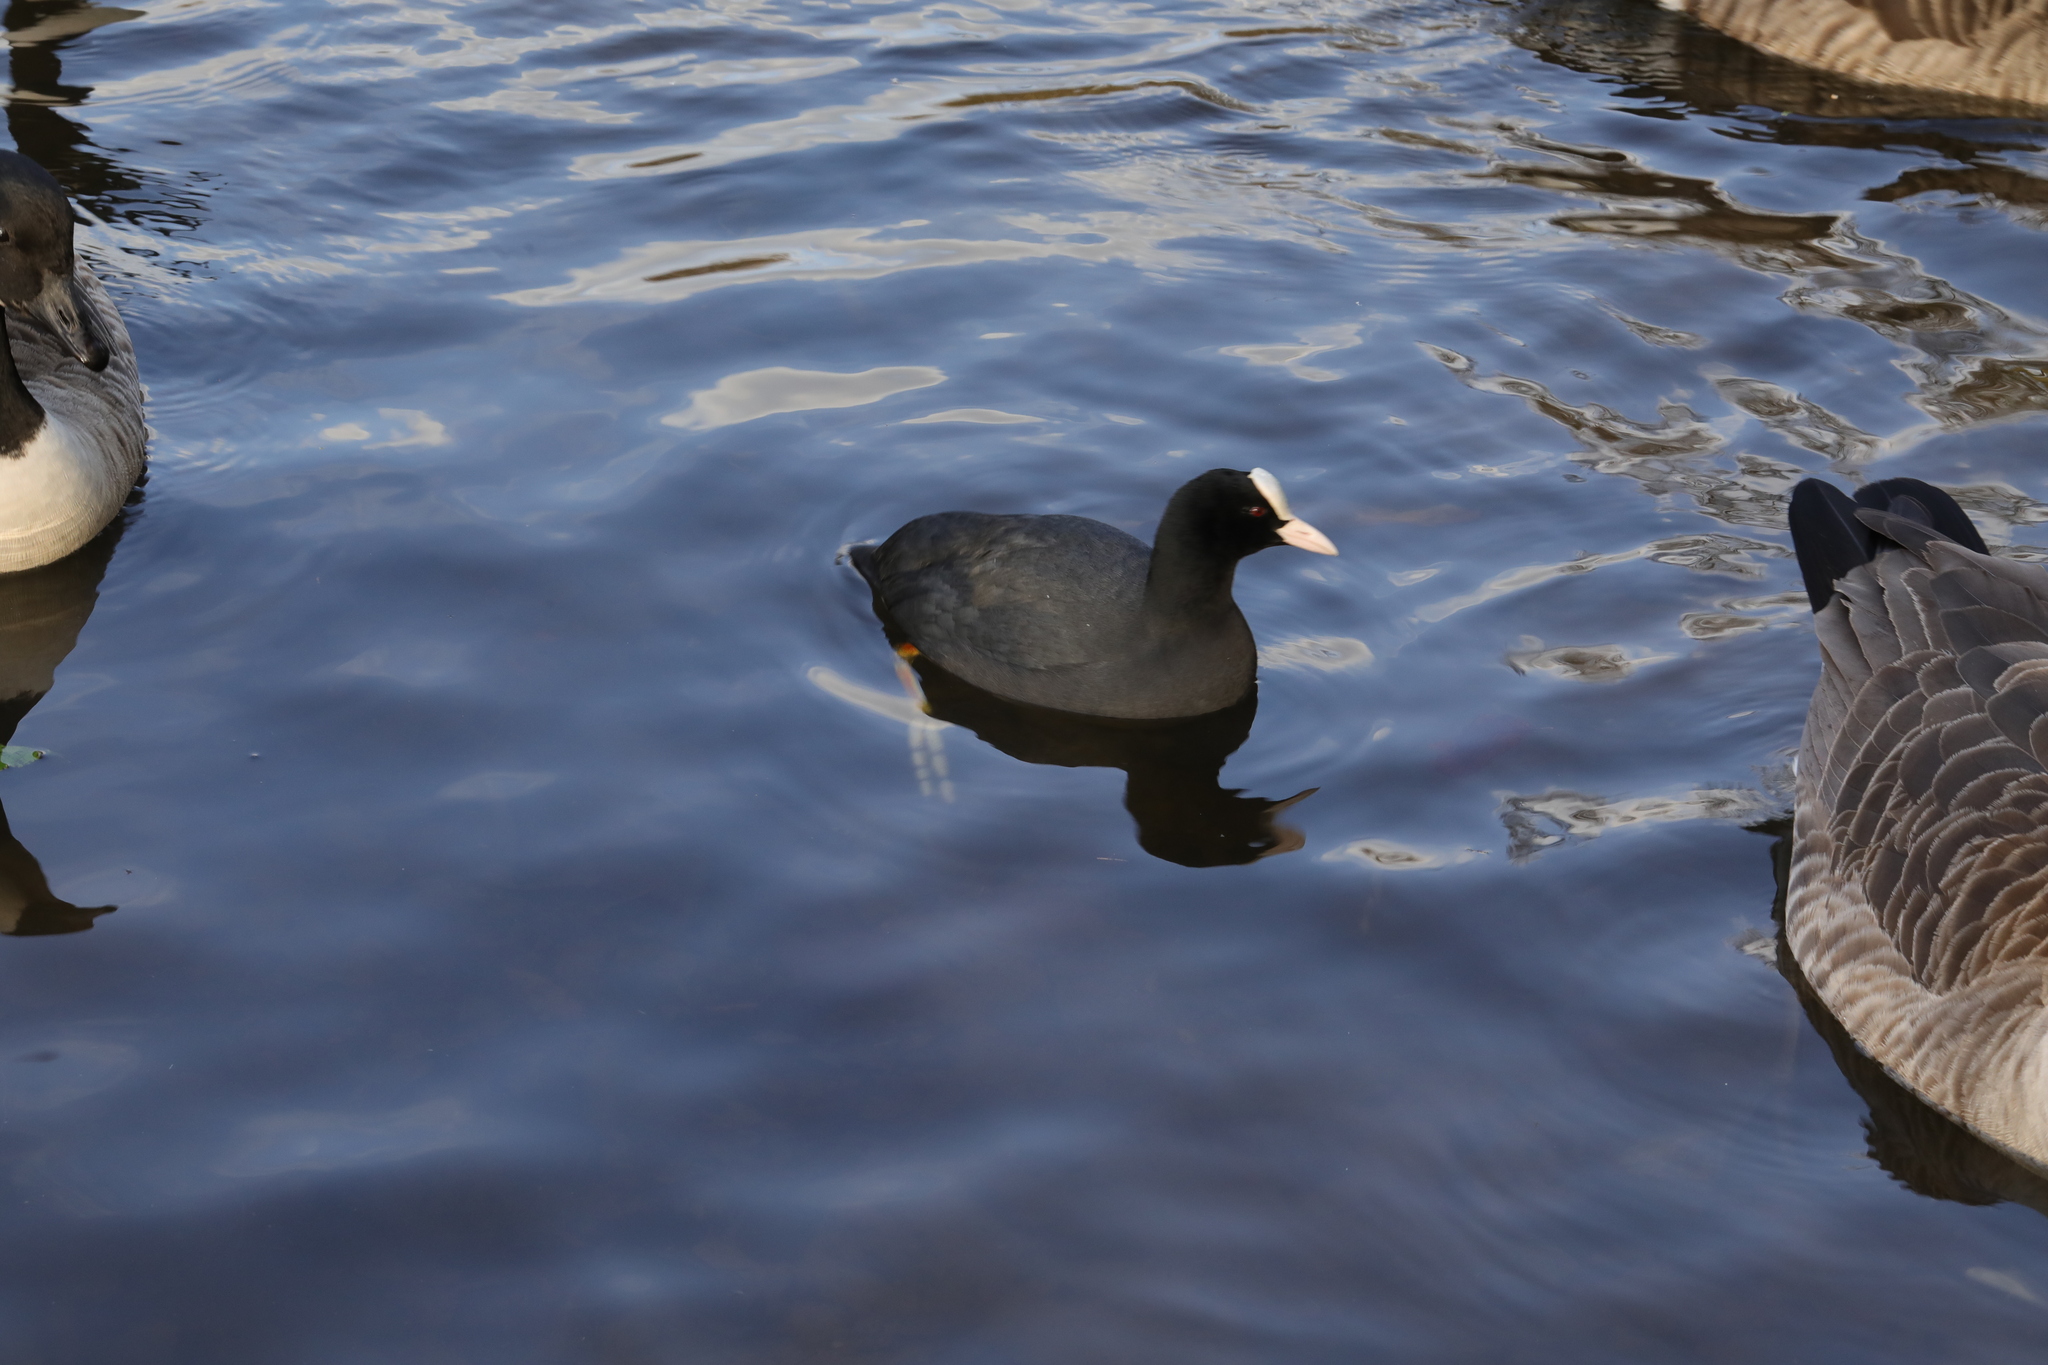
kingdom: Animalia
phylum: Chordata
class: Aves
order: Gruiformes
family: Rallidae
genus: Fulica
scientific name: Fulica atra
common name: Eurasian coot
